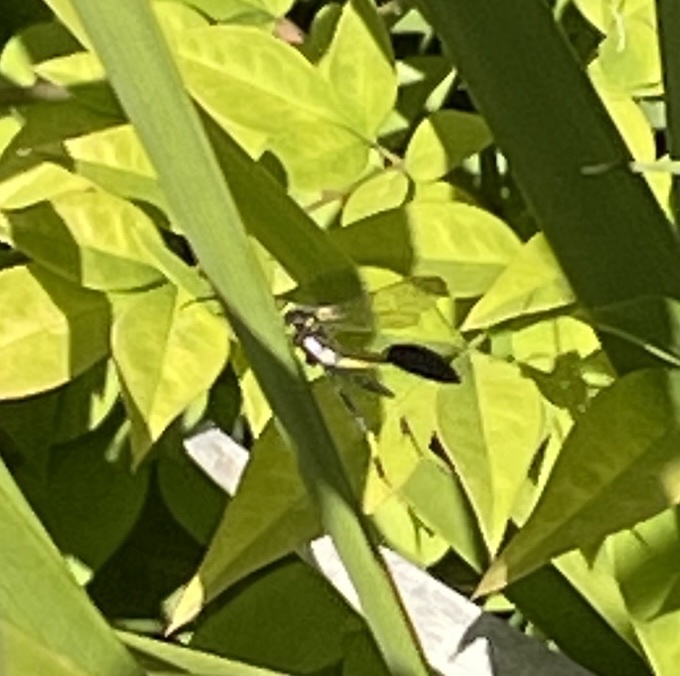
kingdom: Animalia
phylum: Arthropoda
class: Insecta
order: Hymenoptera
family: Sphecidae
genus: Sceliphron
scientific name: Sceliphron caementarium
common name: Mud dauber
